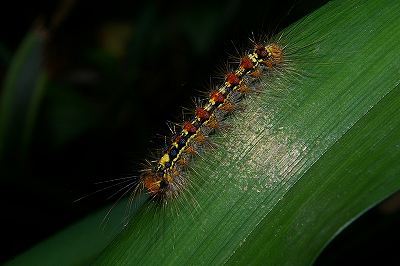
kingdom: Animalia
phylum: Arthropoda
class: Insecta
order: Lepidoptera
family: Erebidae
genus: Lymantria
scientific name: Lymantria dispar
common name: Gypsy moth
